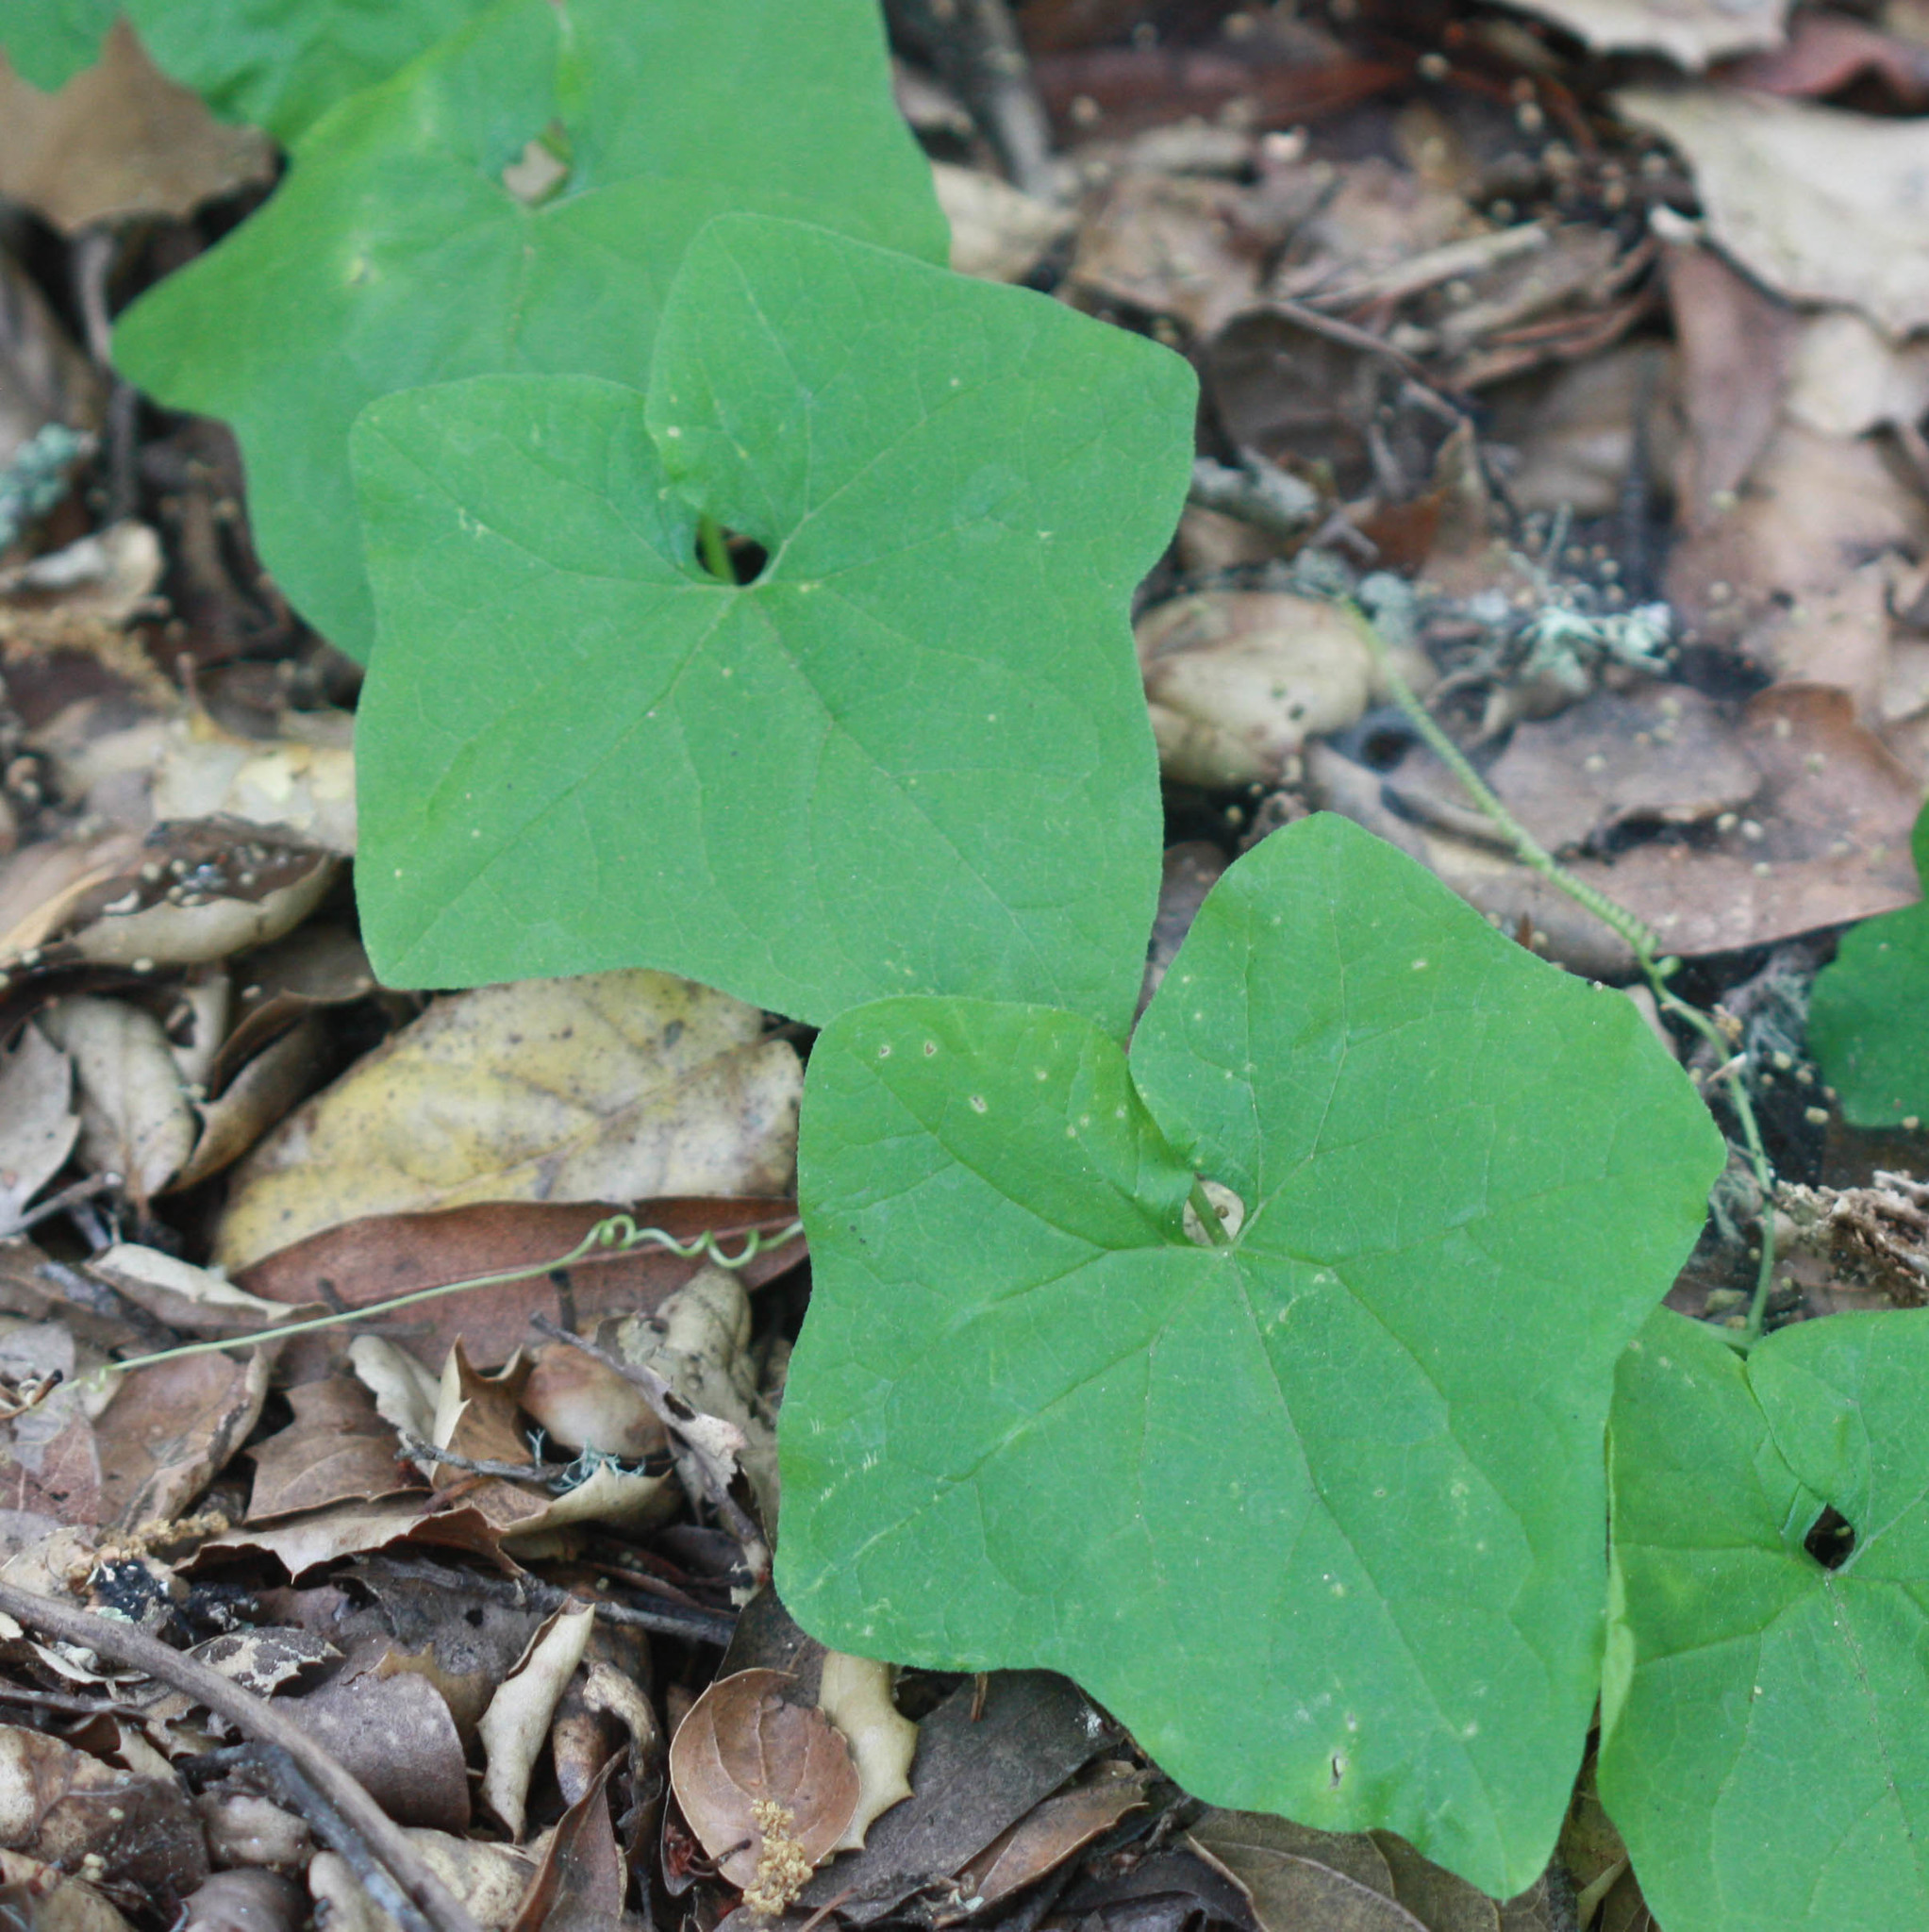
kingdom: Plantae
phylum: Tracheophyta
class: Magnoliopsida
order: Cucurbitales
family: Cucurbitaceae
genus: Marah
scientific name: Marah fabacea
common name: California manroot
